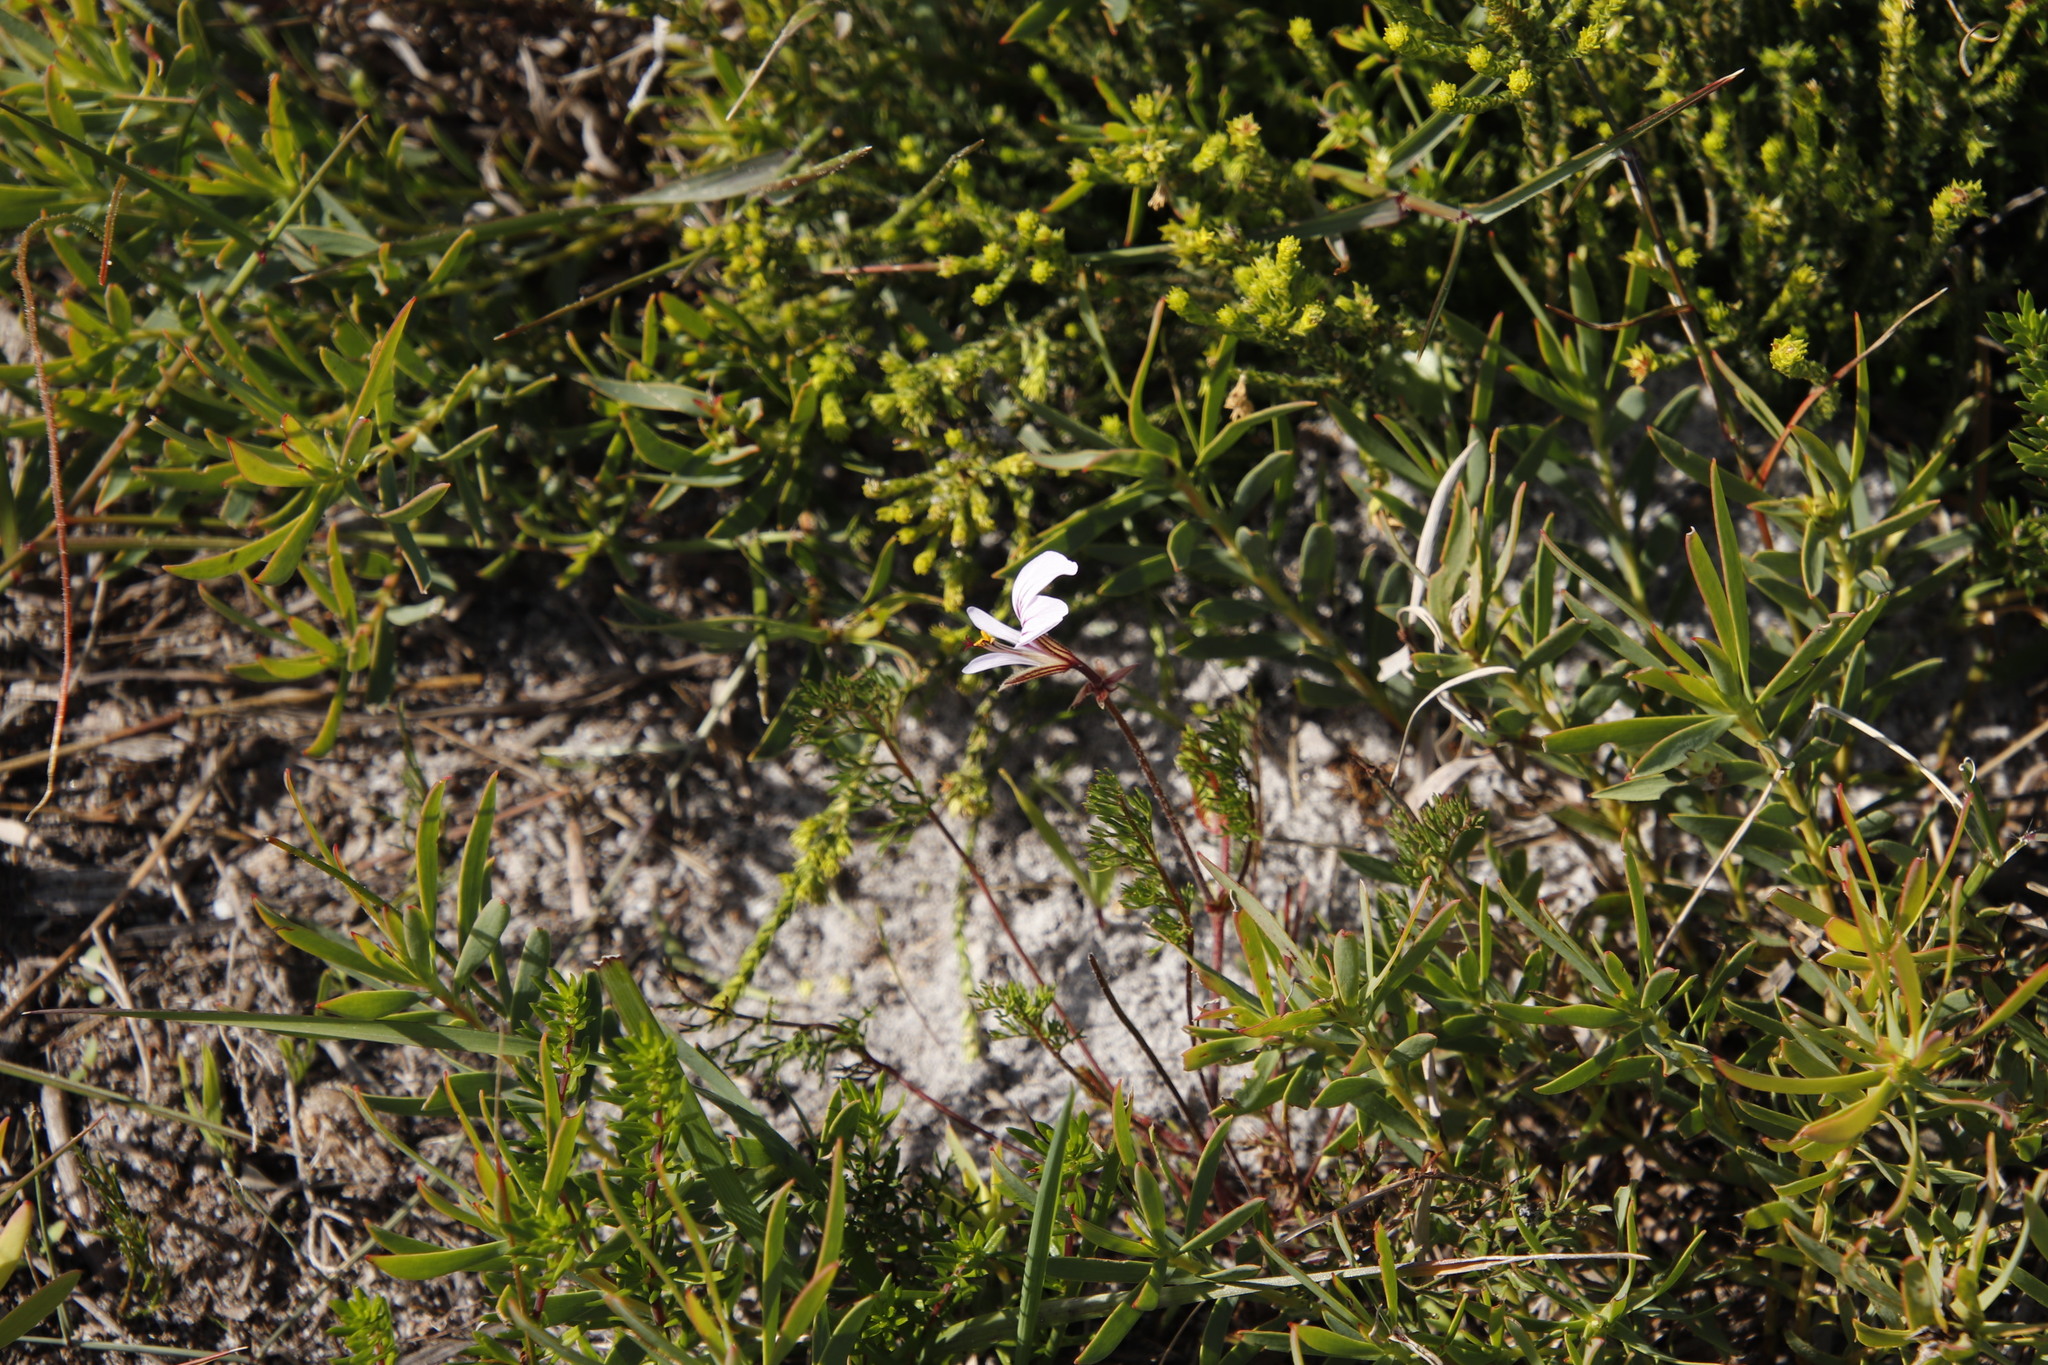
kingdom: Plantae
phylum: Tracheophyta
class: Magnoliopsida
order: Geraniales
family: Geraniaceae
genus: Pelargonium
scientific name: Pelargonium myrrhifolium
